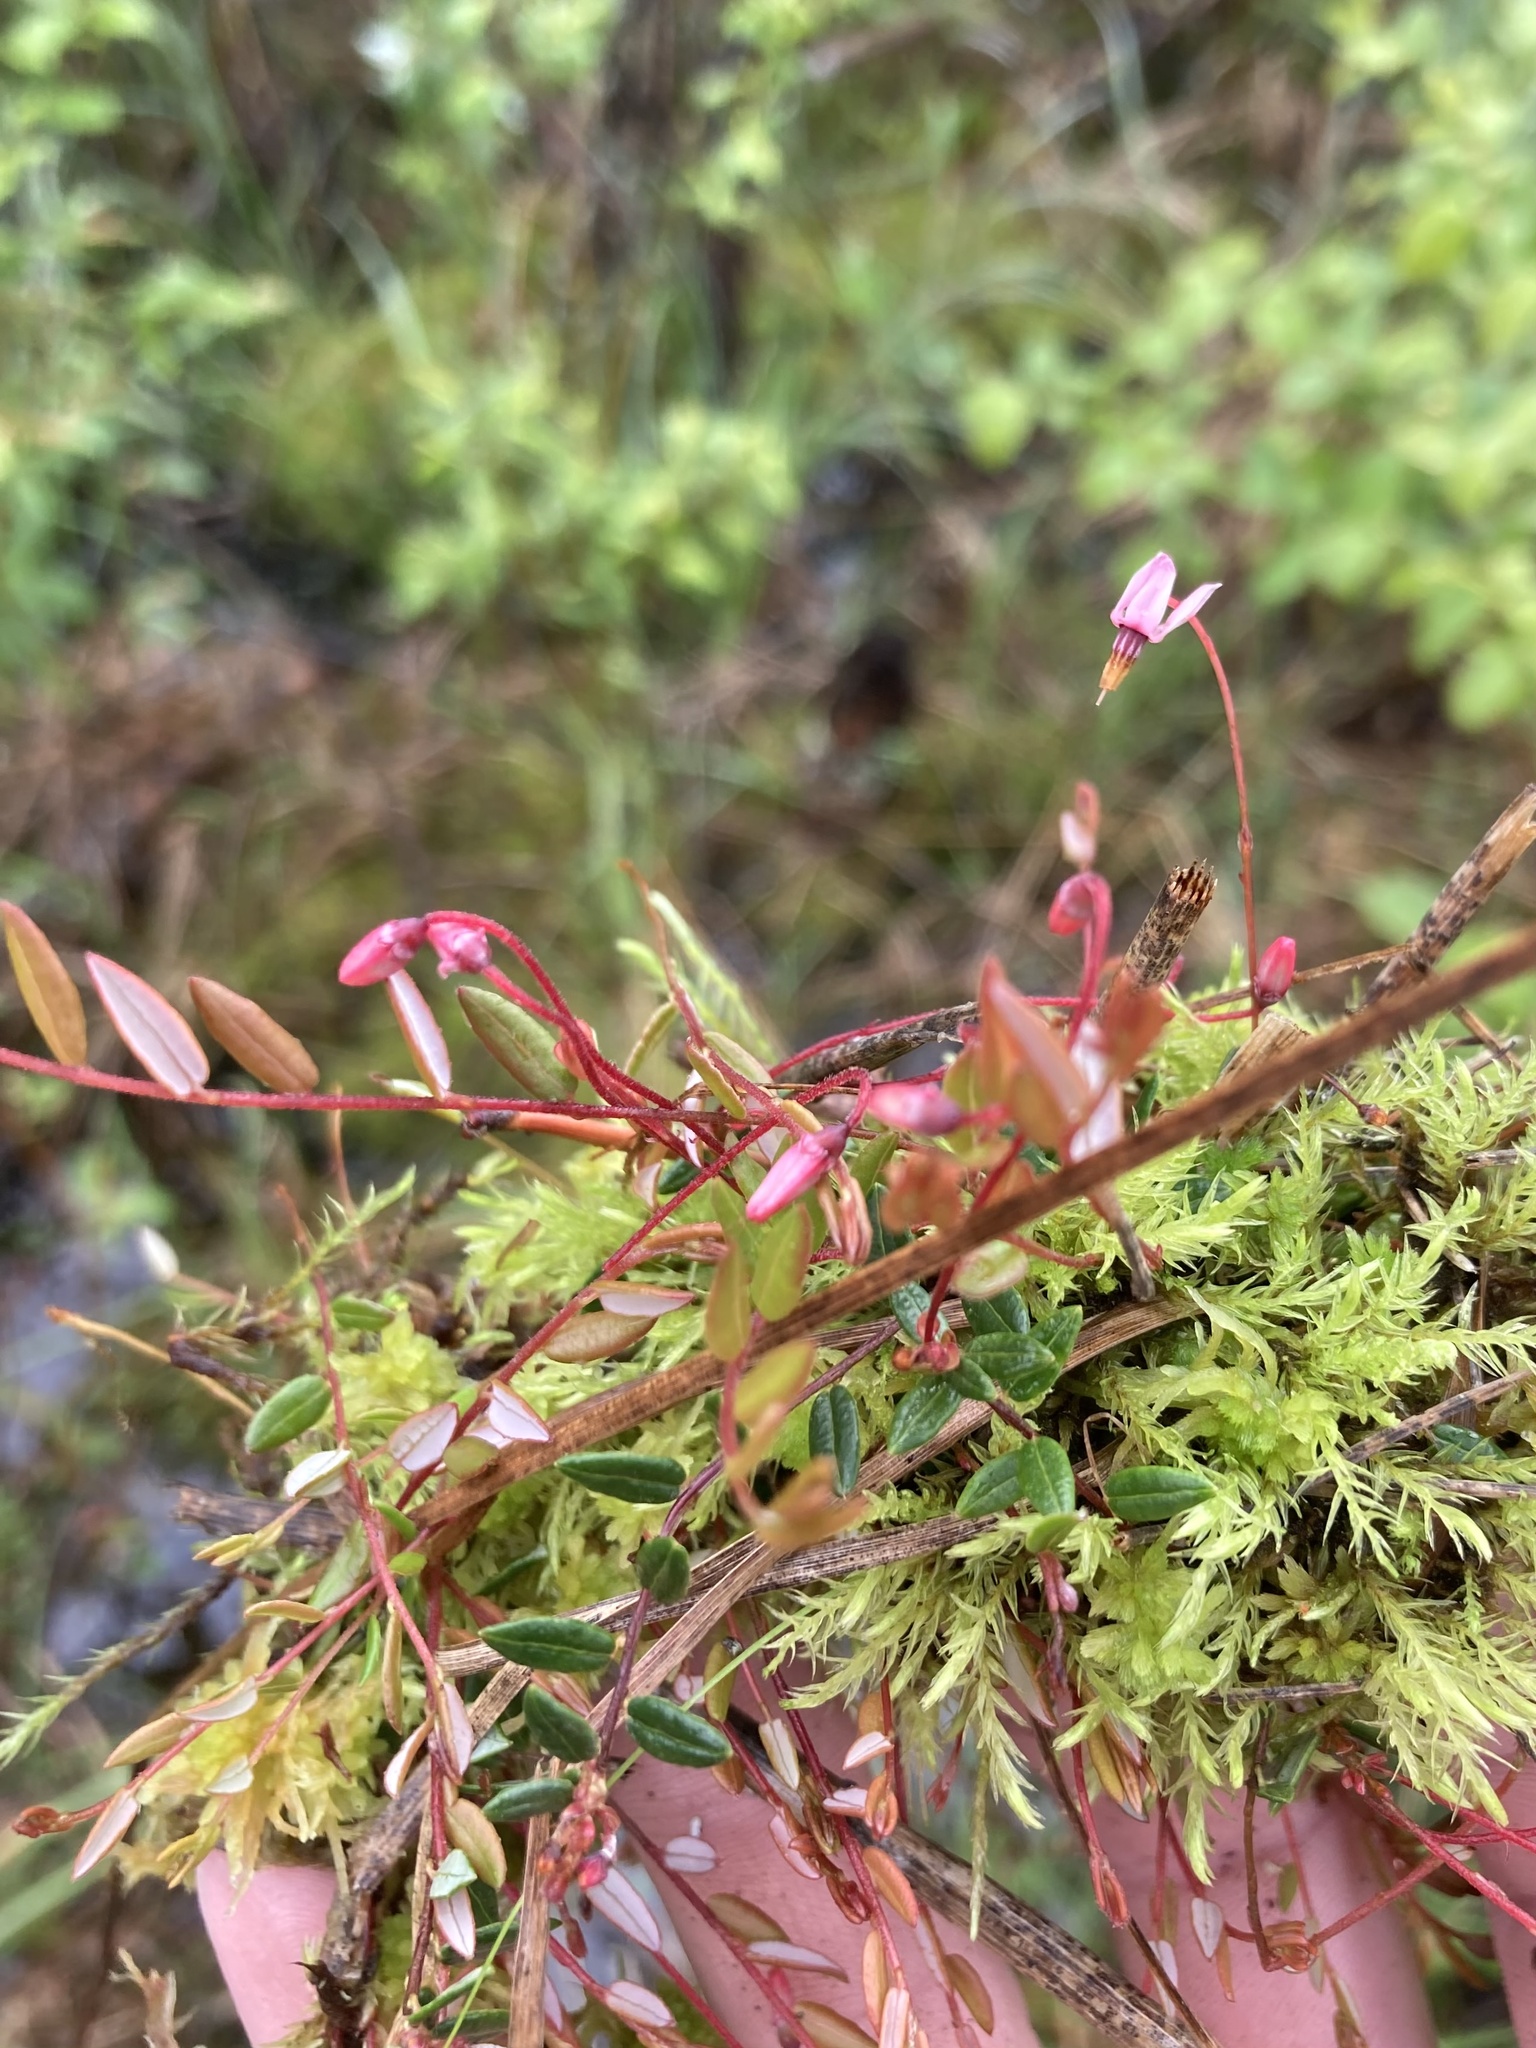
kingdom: Plantae
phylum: Tracheophyta
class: Magnoliopsida
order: Ericales
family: Ericaceae
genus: Vaccinium
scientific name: Vaccinium oxycoccos
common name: Cranberry
